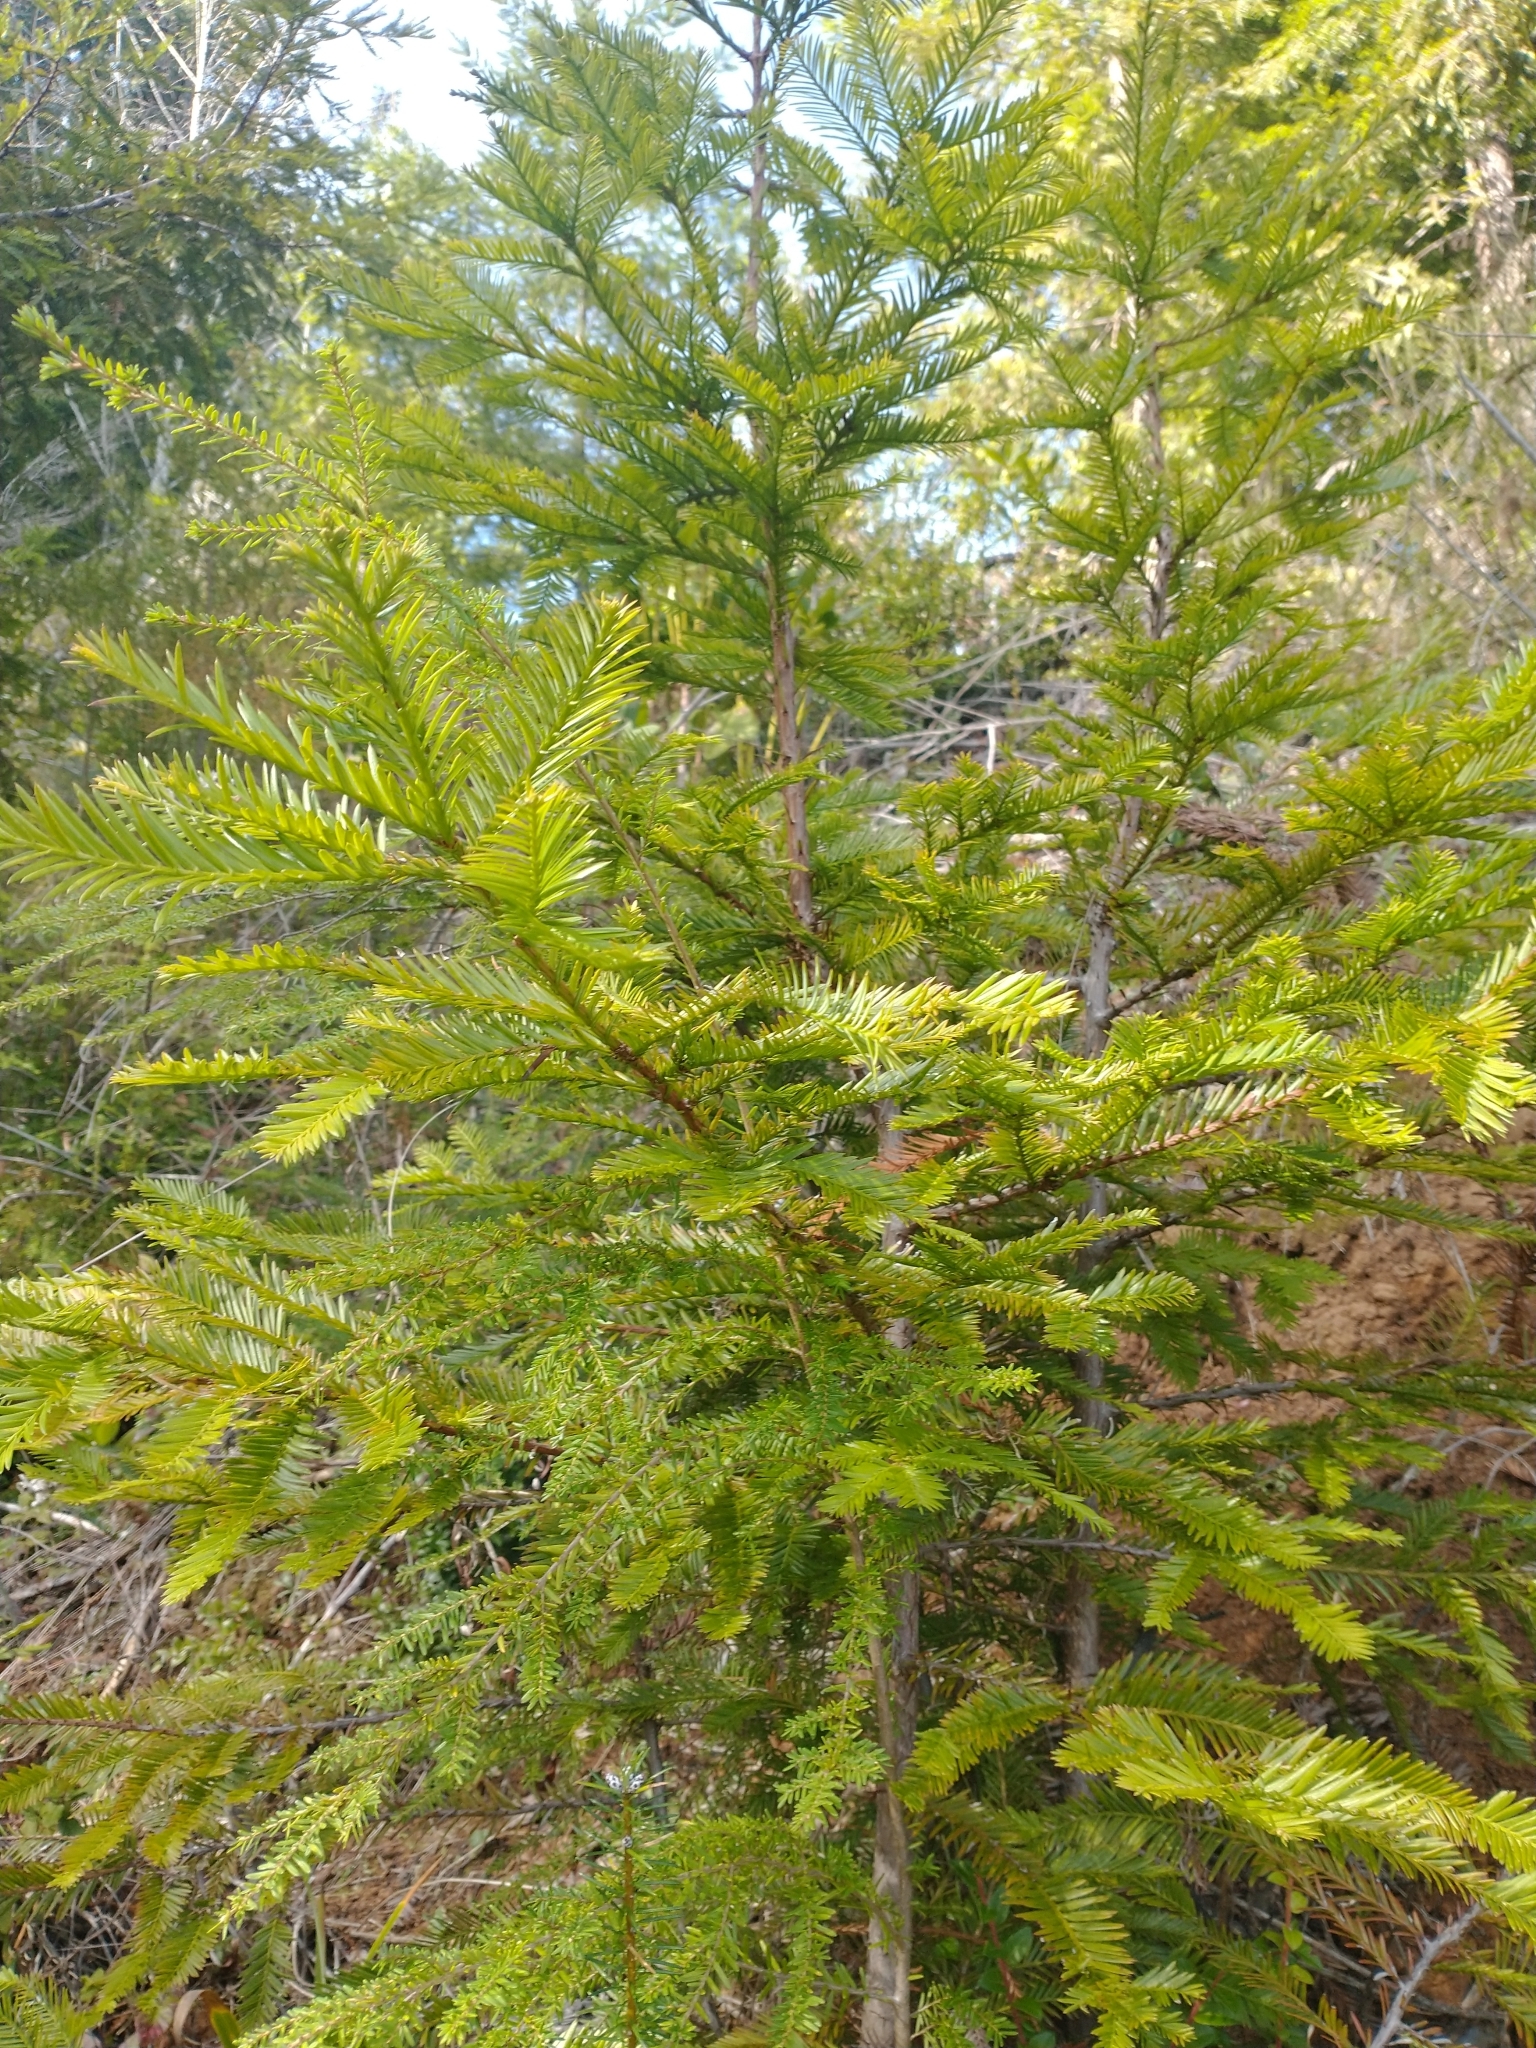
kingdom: Plantae
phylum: Tracheophyta
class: Pinopsida
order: Pinales
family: Cupressaceae
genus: Sequoia
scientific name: Sequoia sempervirens
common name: Coast redwood
